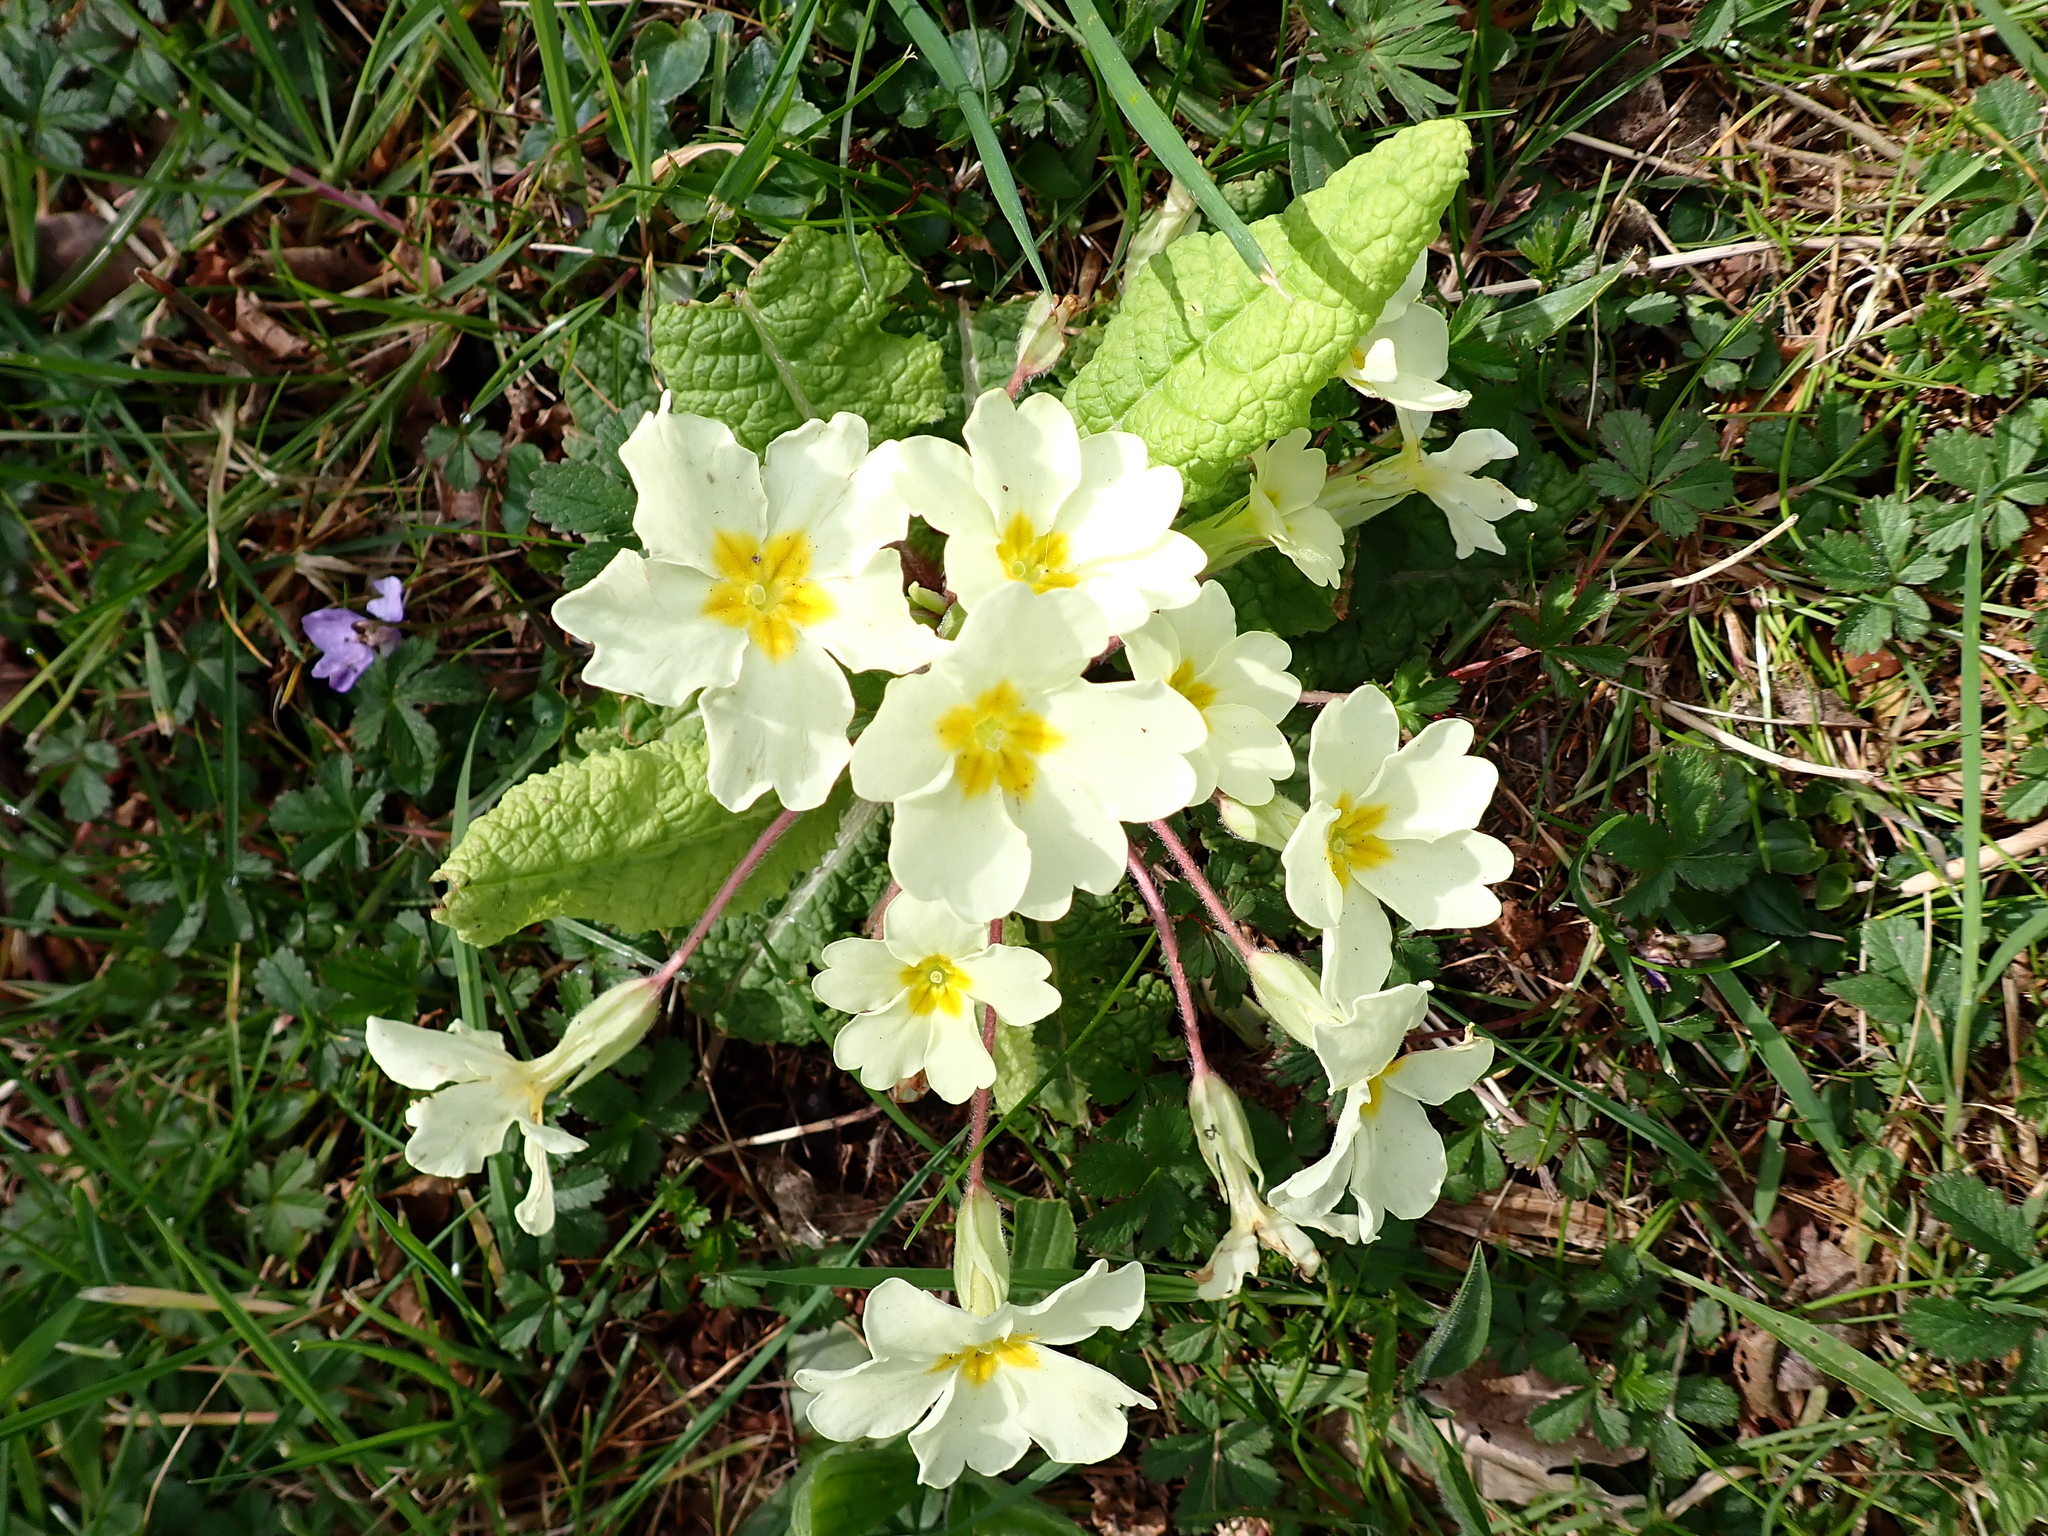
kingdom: Plantae
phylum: Tracheophyta
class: Magnoliopsida
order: Ericales
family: Primulaceae
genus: Primula
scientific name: Primula vulgaris
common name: Primrose
